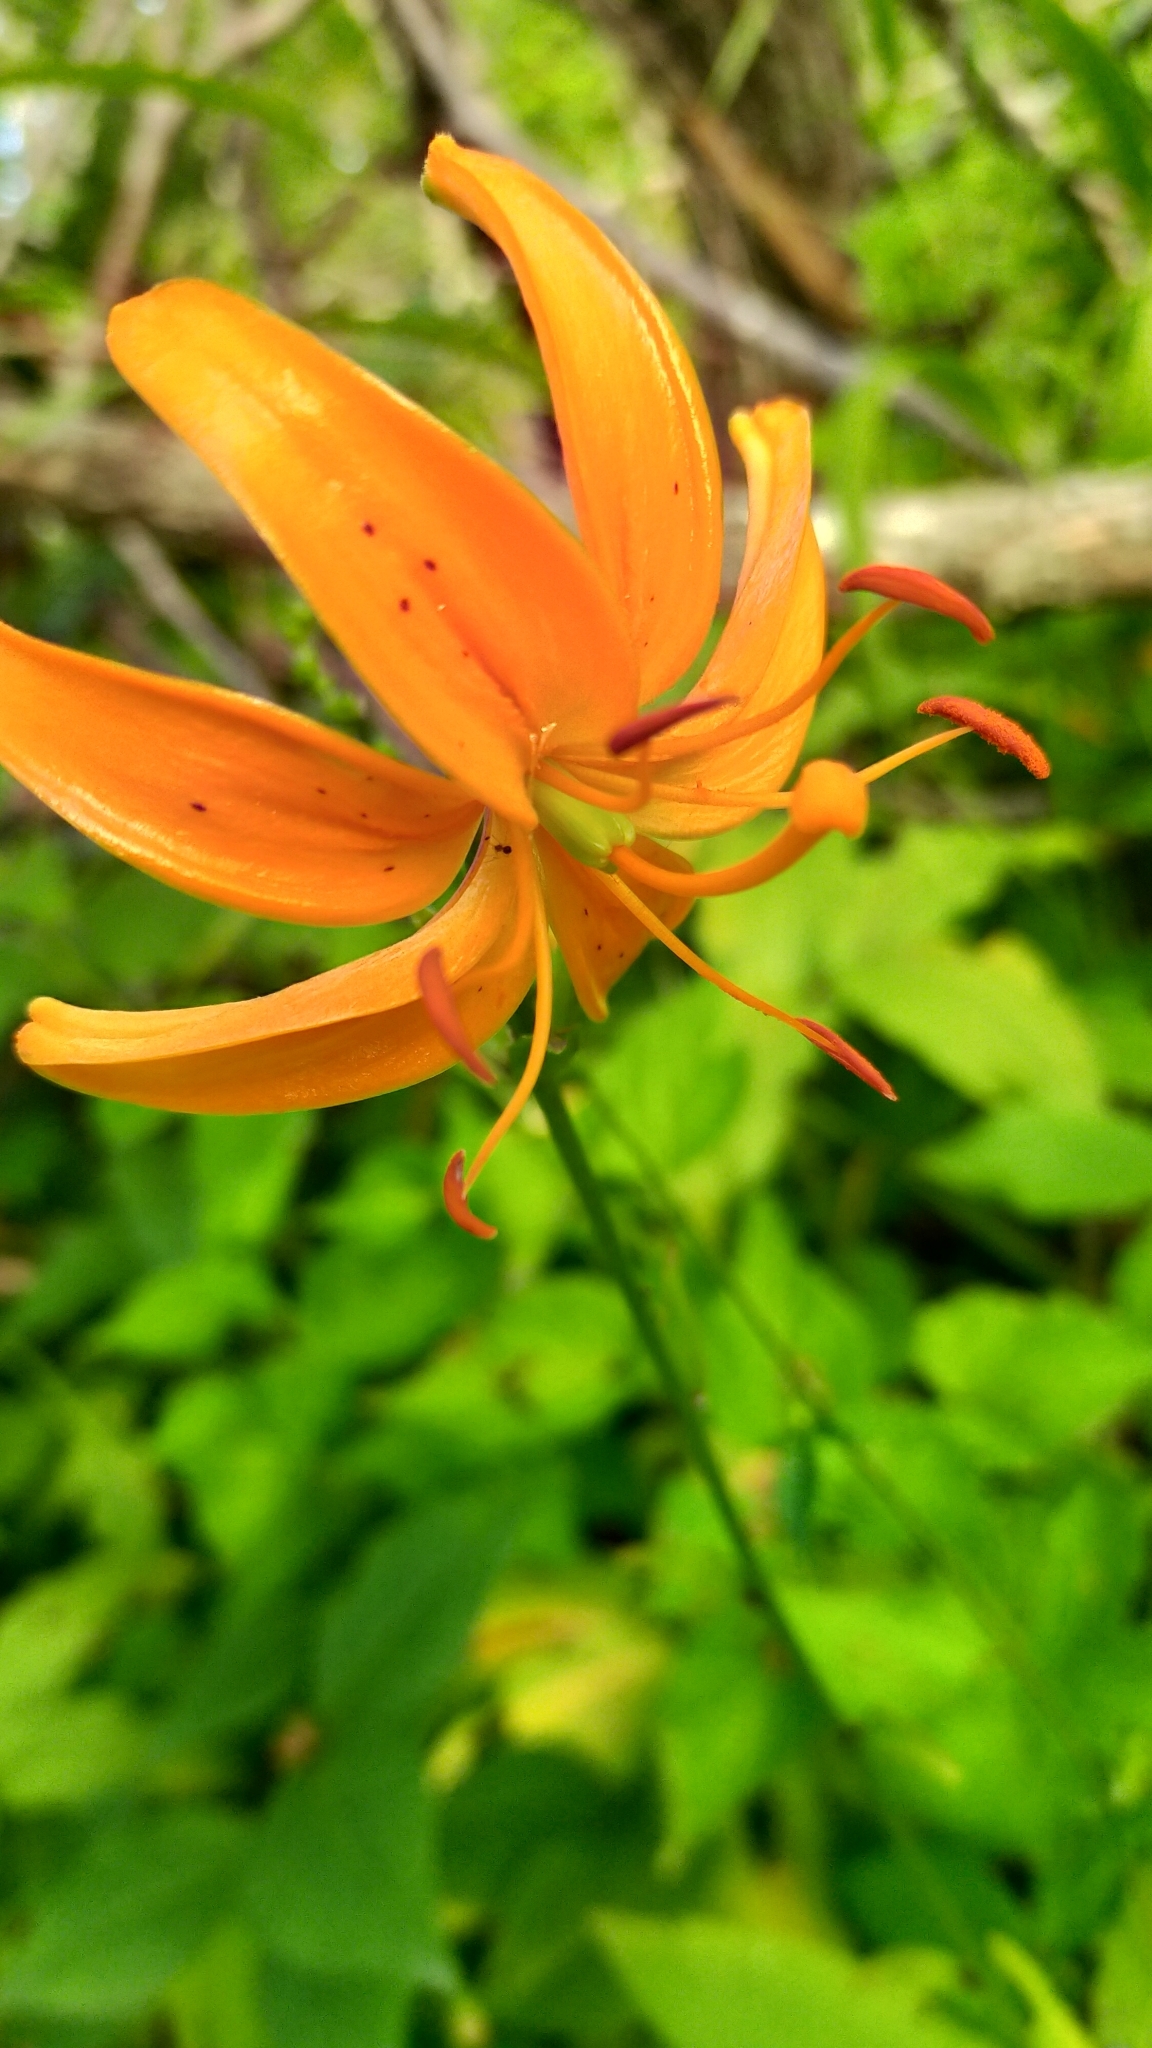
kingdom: Plantae
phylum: Tracheophyta
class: Liliopsida
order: Liliales
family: Liliaceae
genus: Lilium
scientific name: Lilium distichum
